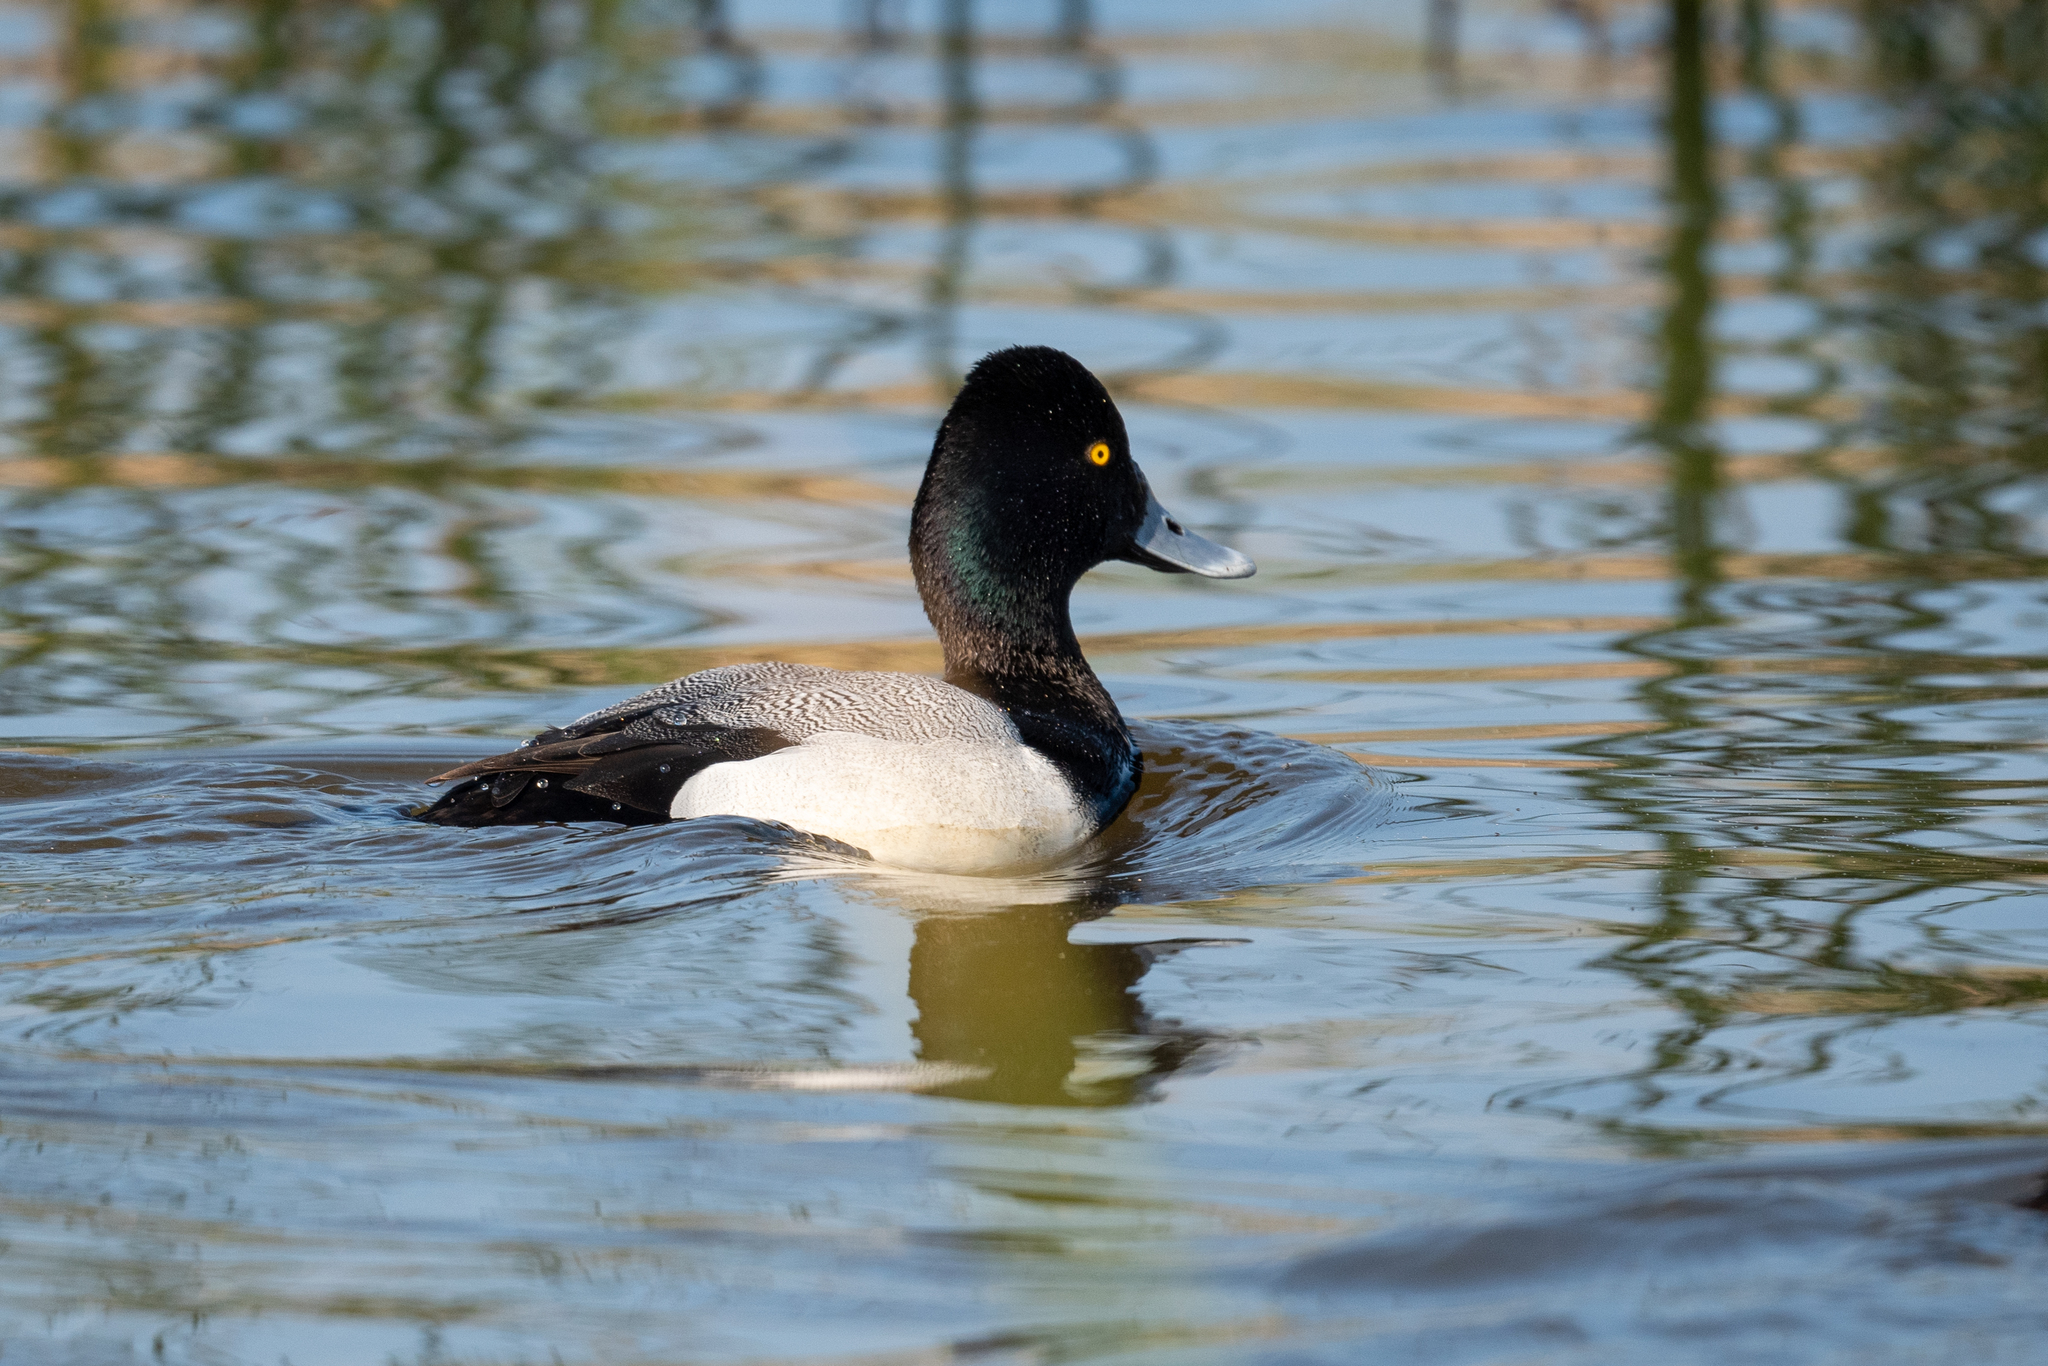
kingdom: Animalia
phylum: Chordata
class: Aves
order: Anseriformes
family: Anatidae
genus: Aythya
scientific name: Aythya affinis
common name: Lesser scaup
